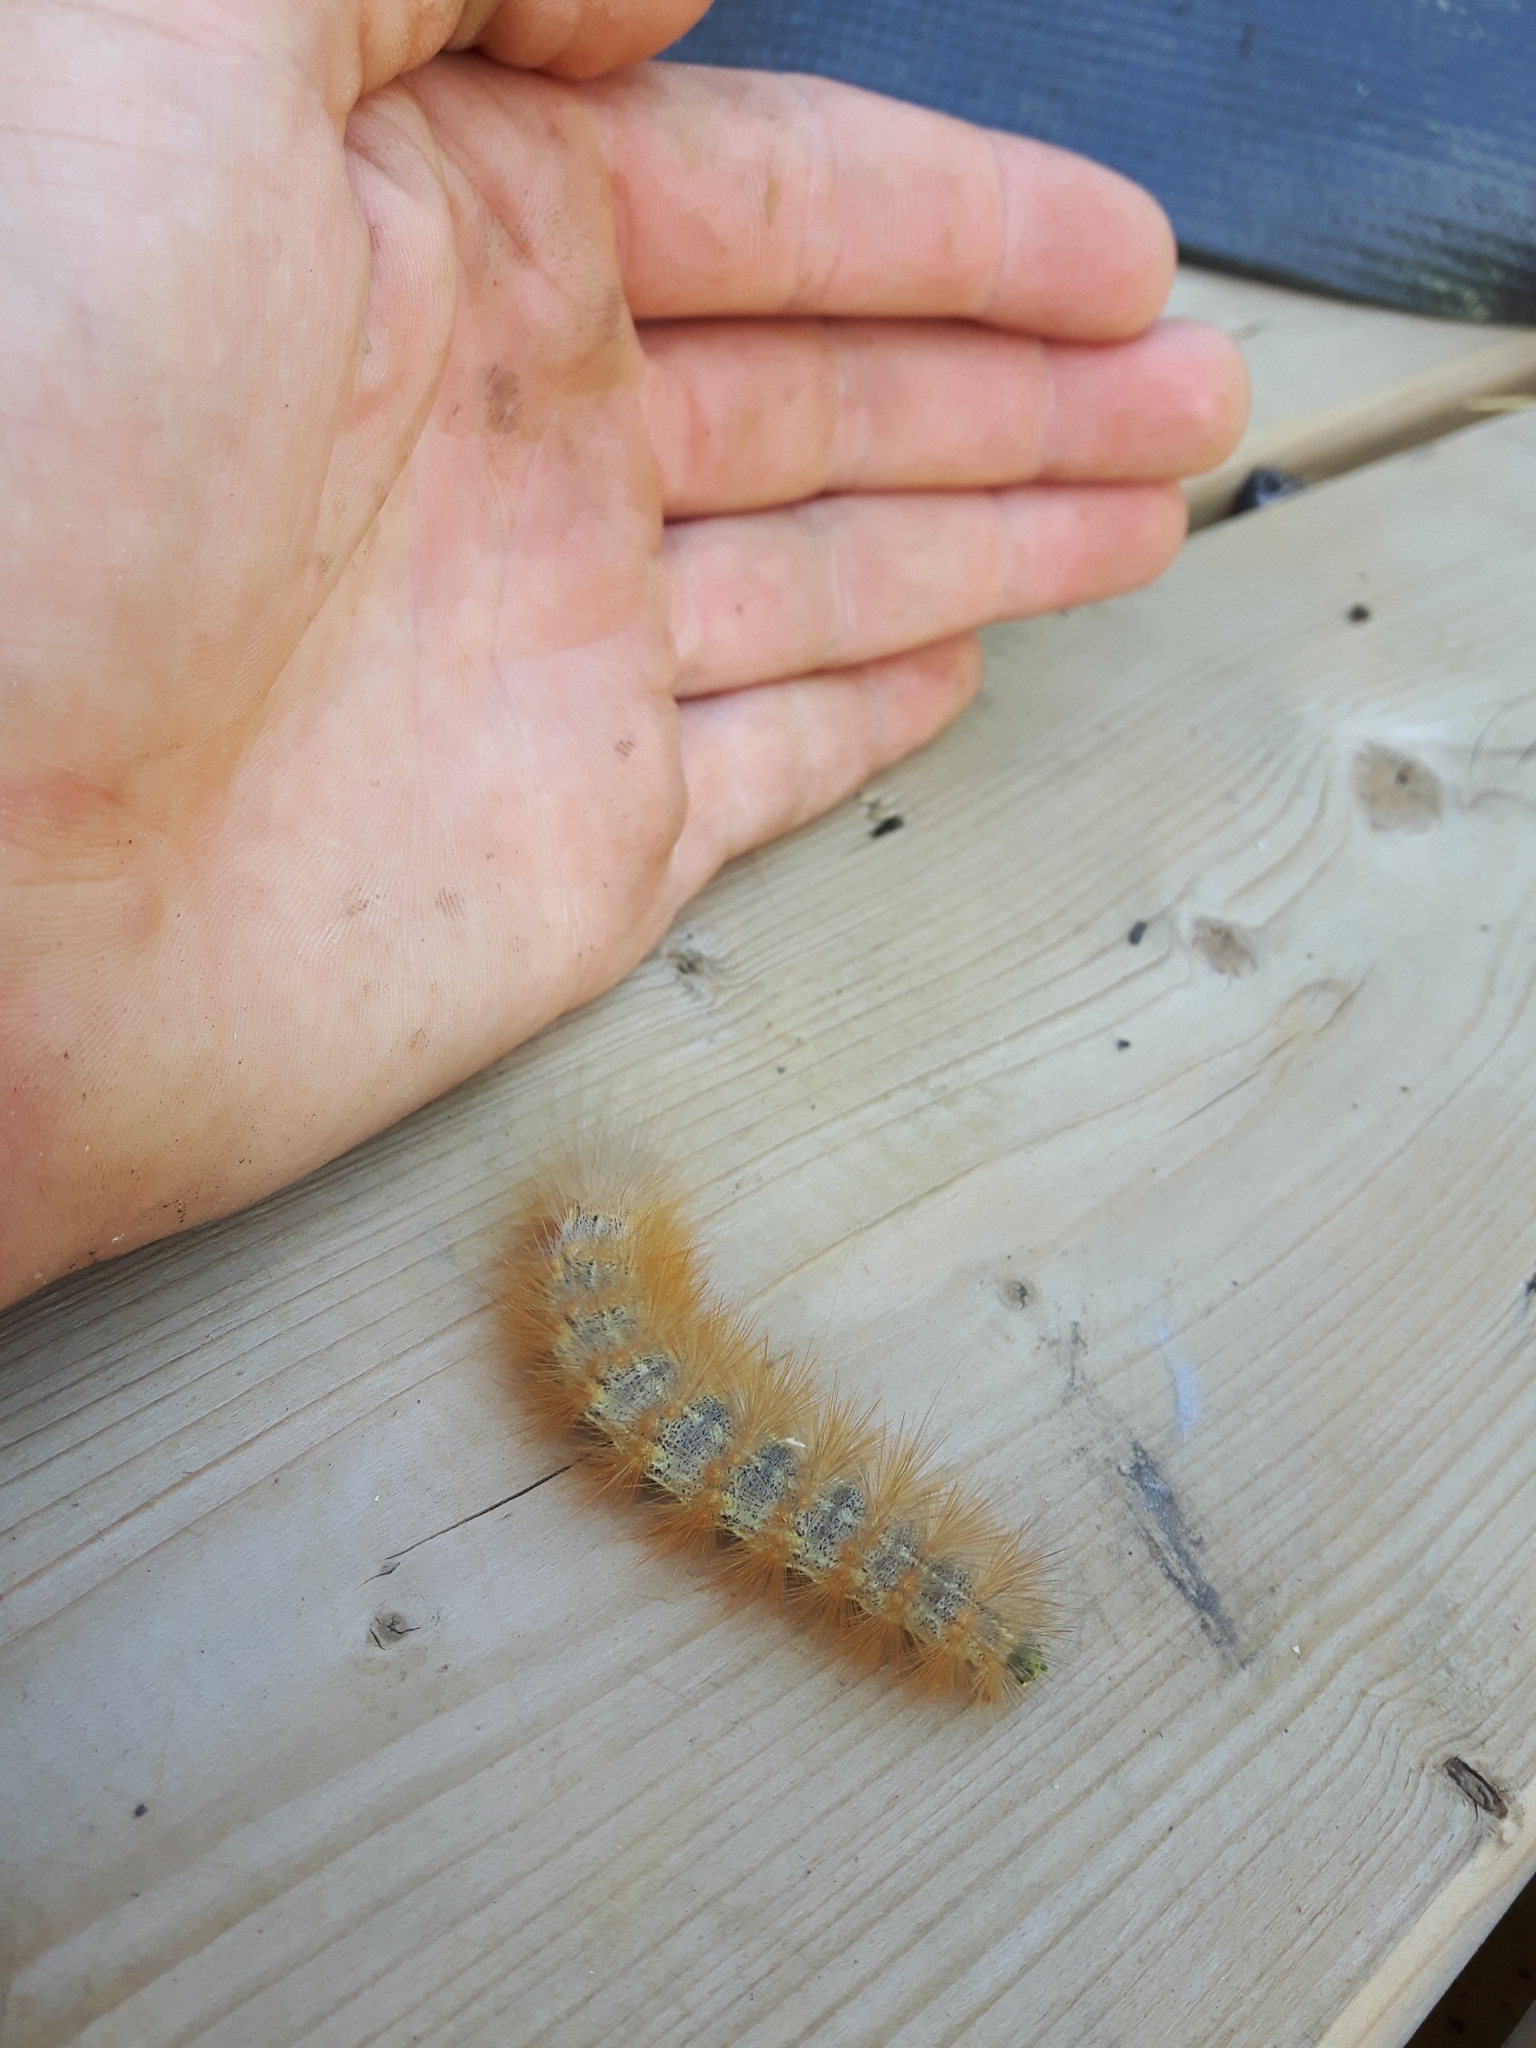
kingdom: Animalia
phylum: Arthropoda
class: Insecta
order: Lepidoptera
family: Erebidae
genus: Estigmene
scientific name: Estigmene acrea
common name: Salt marsh moth
